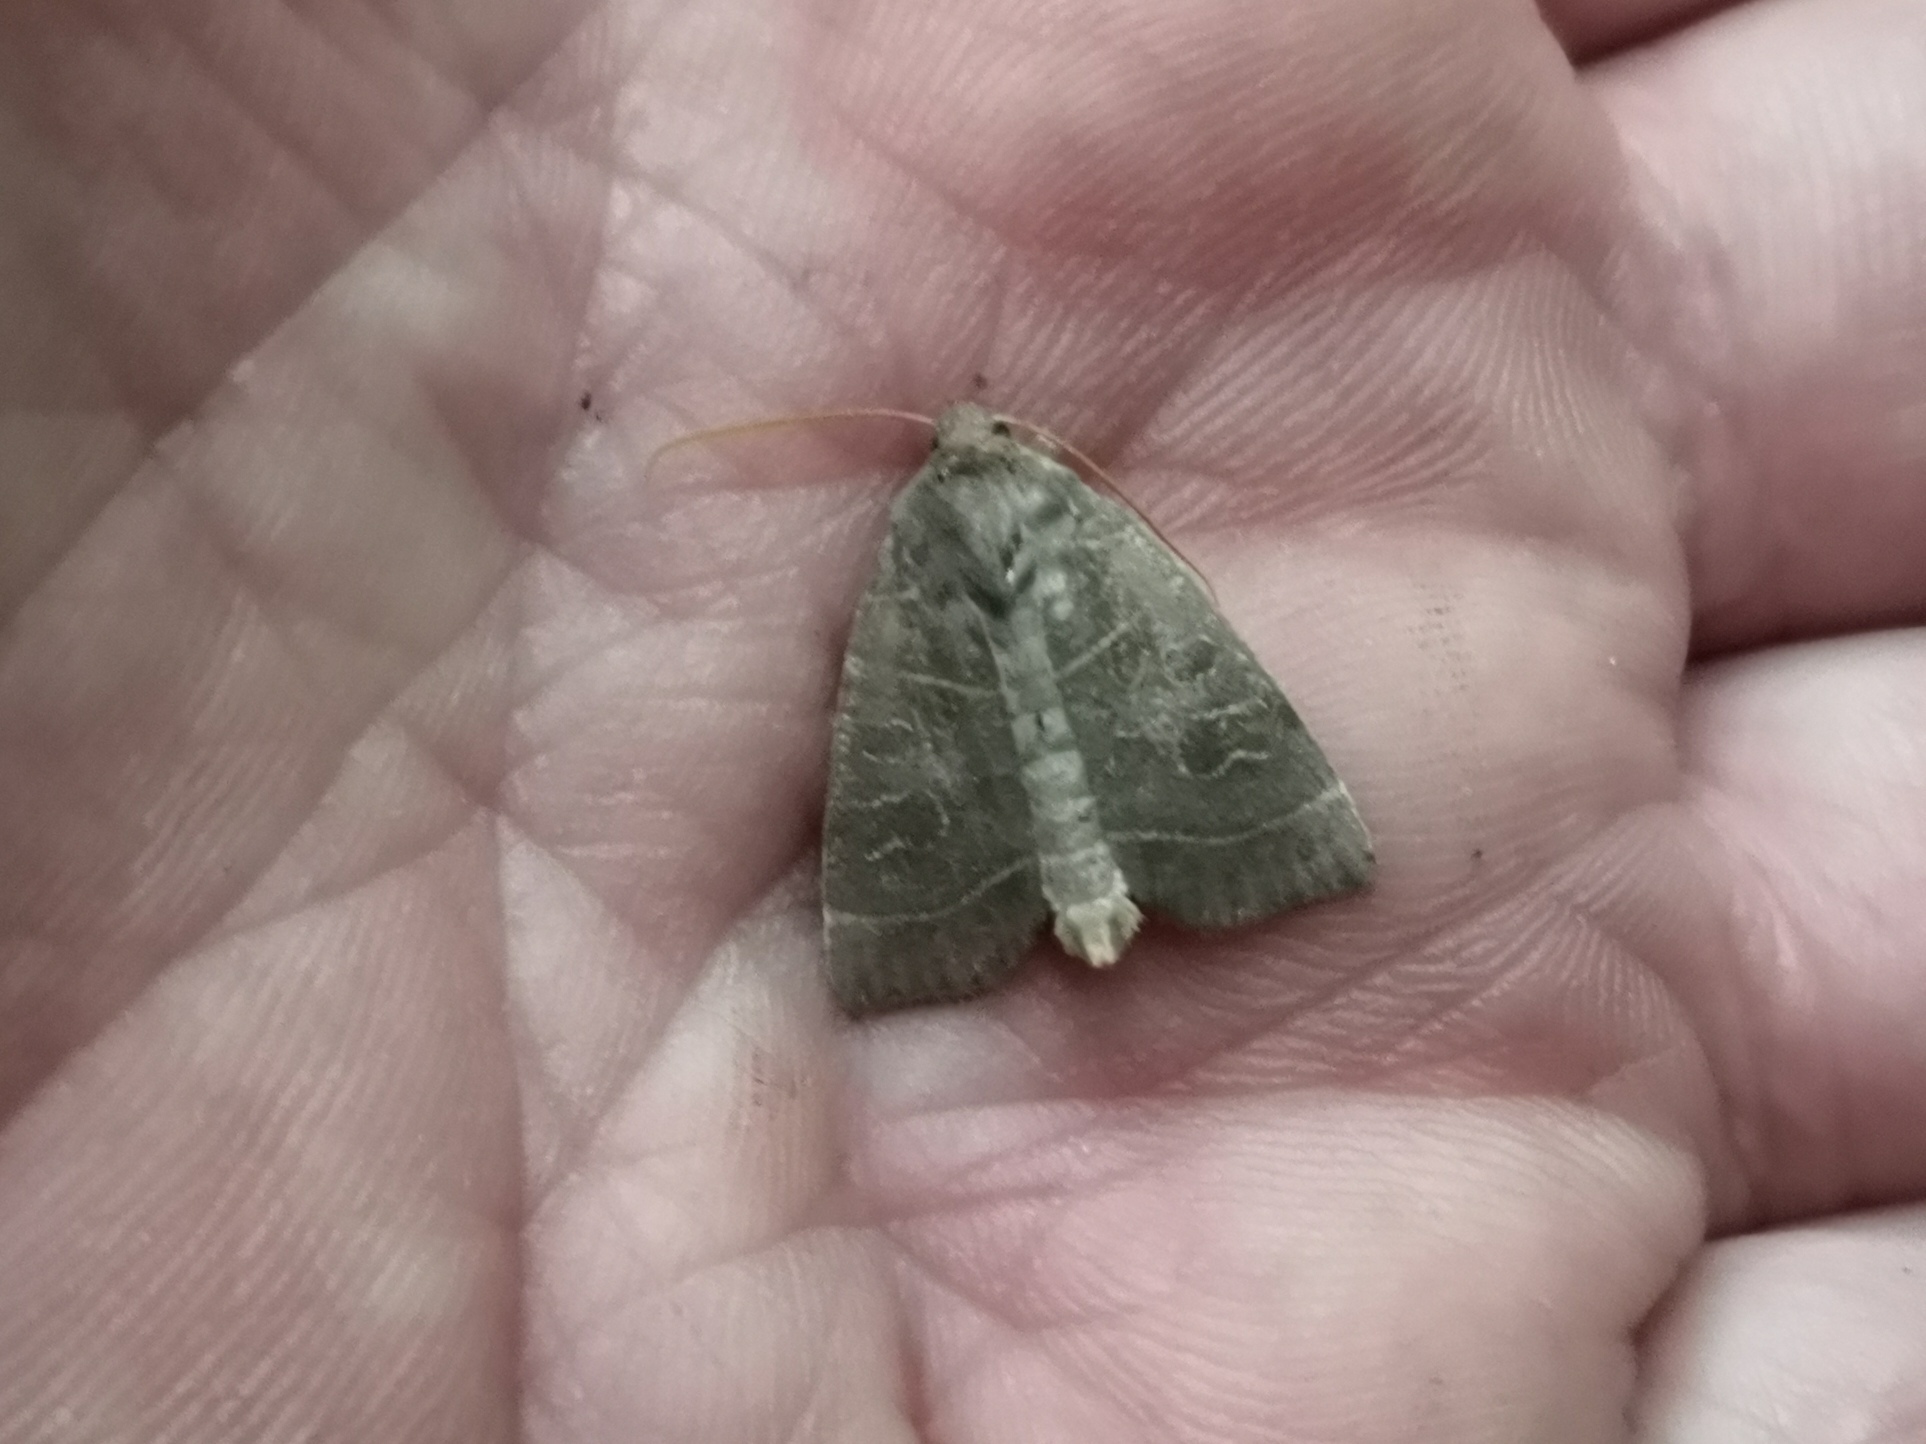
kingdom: Animalia
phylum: Arthropoda
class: Insecta
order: Lepidoptera
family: Noctuidae
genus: Ipimorpha
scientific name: Ipimorpha subtusa
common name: Olive
